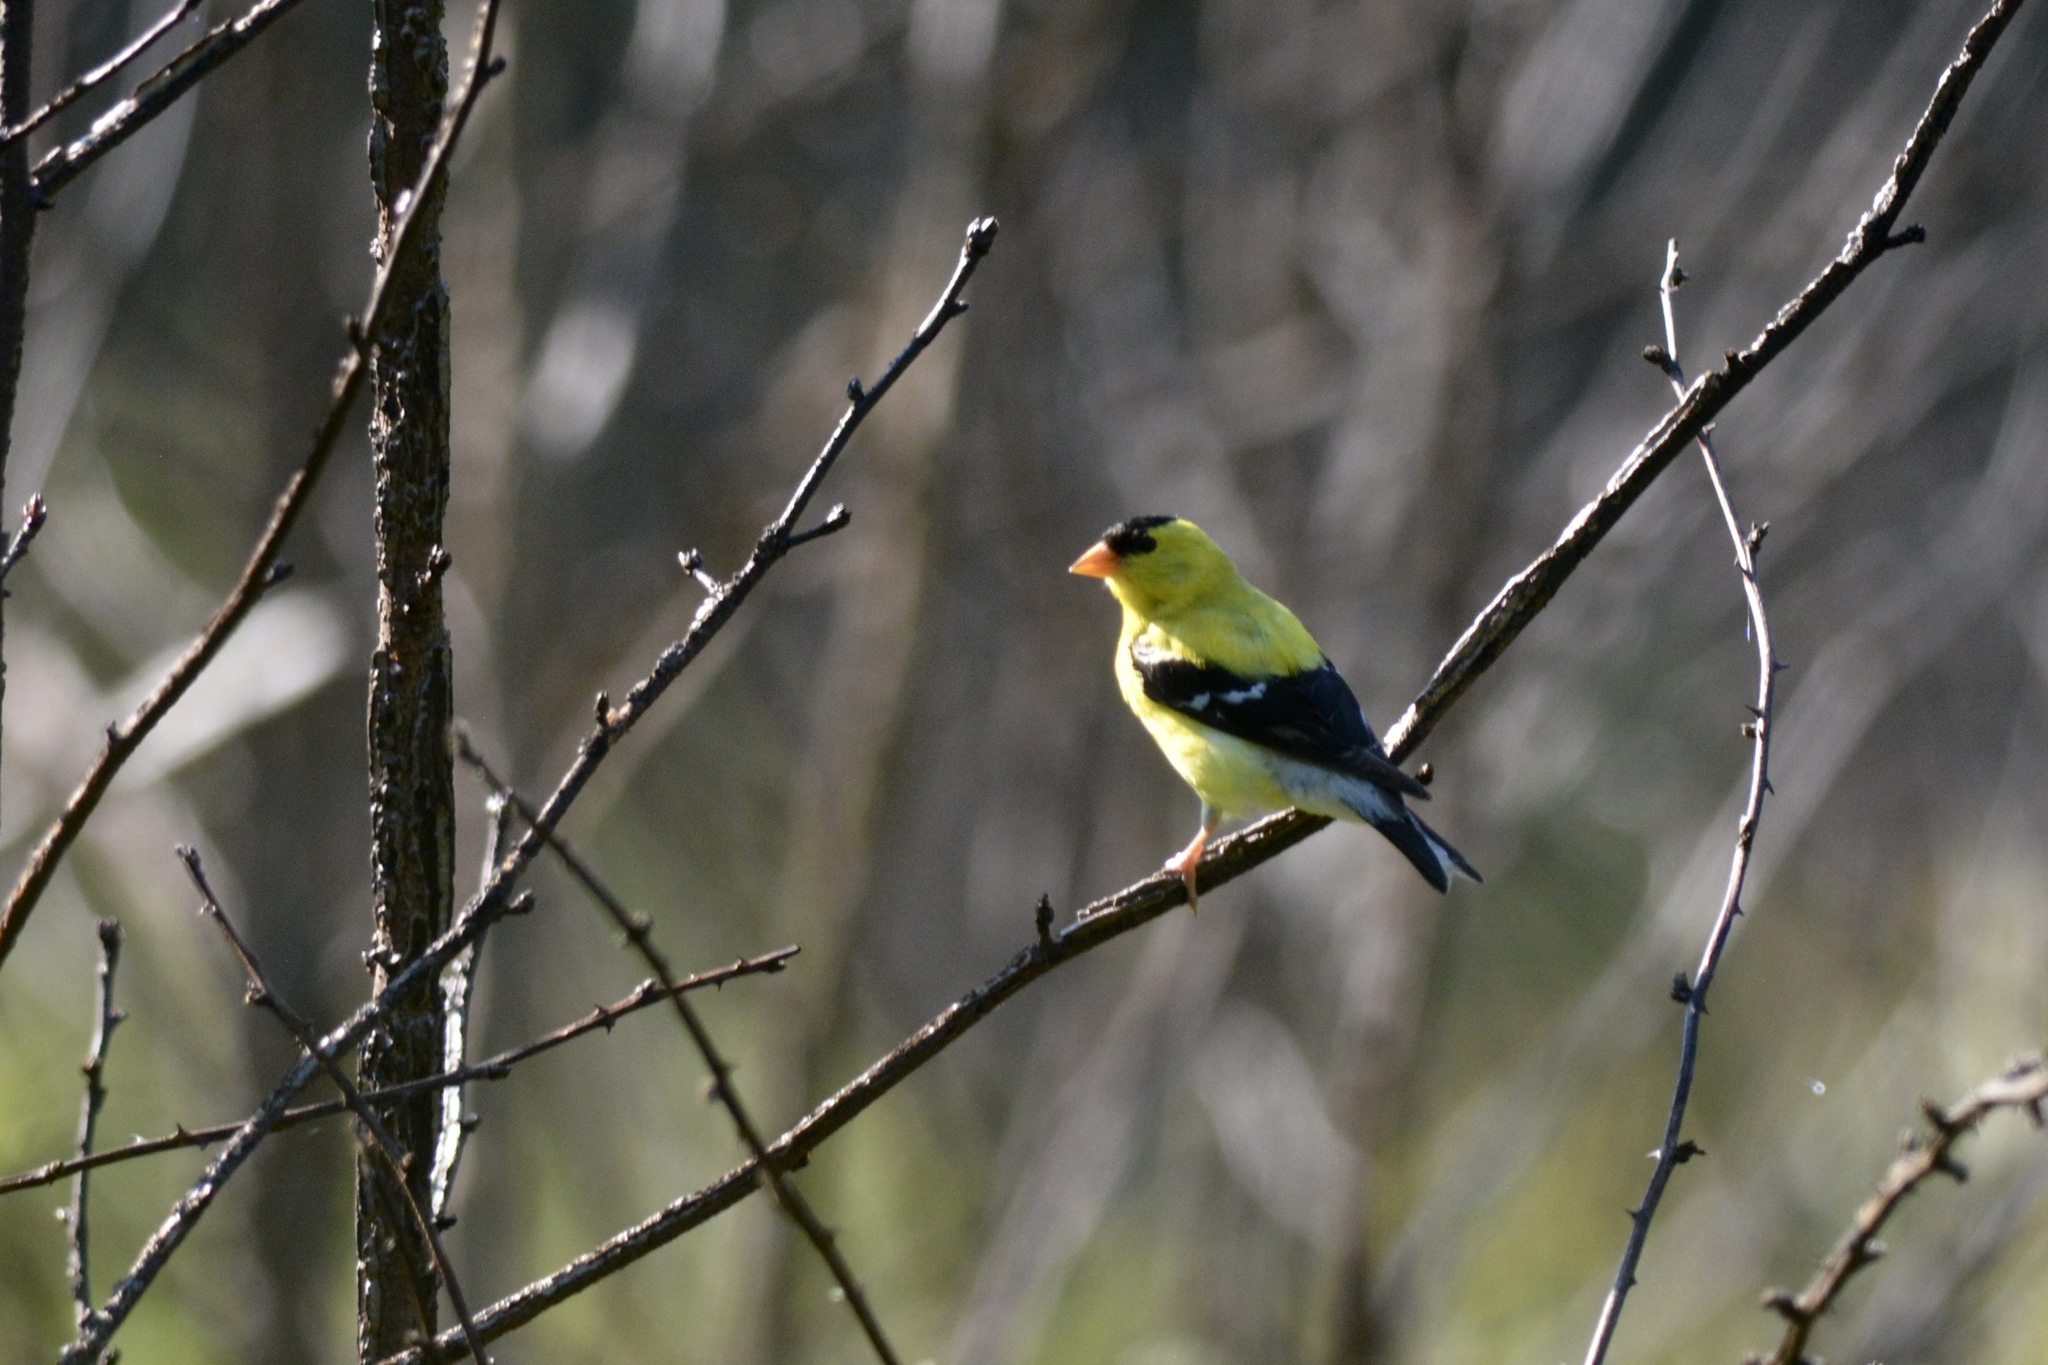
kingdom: Animalia
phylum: Chordata
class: Aves
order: Passeriformes
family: Fringillidae
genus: Spinus
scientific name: Spinus tristis
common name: American goldfinch
